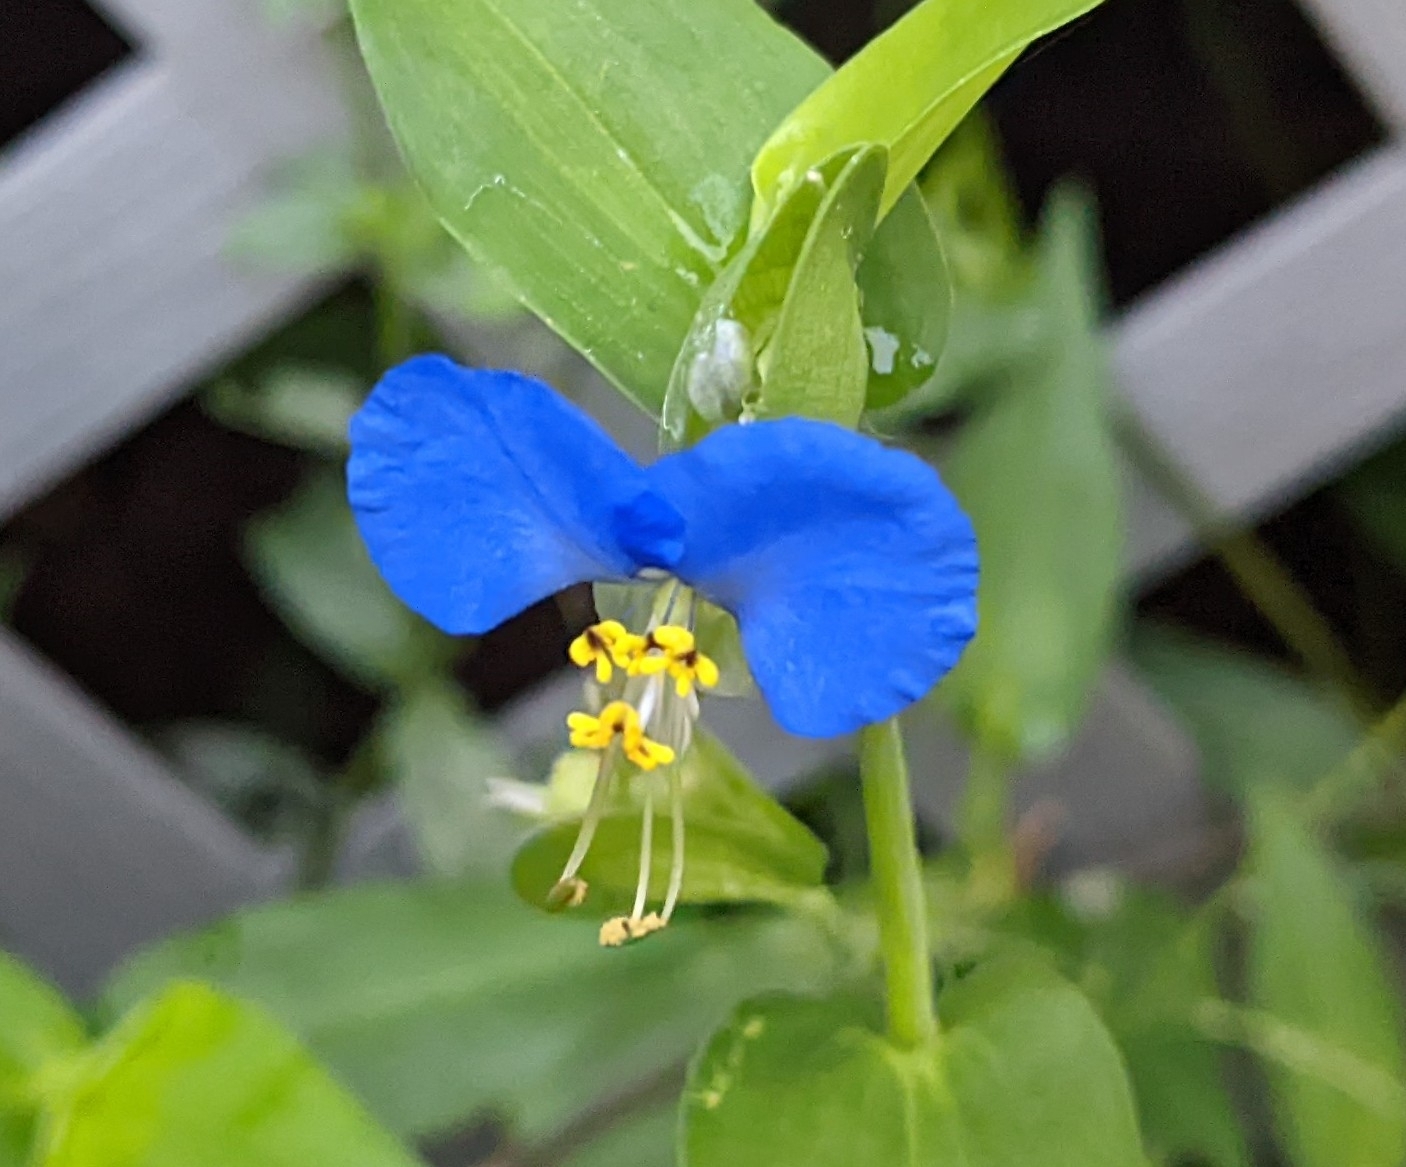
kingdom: Plantae
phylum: Tracheophyta
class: Liliopsida
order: Commelinales
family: Commelinaceae
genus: Commelina
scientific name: Commelina communis
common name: Asiatic dayflower
